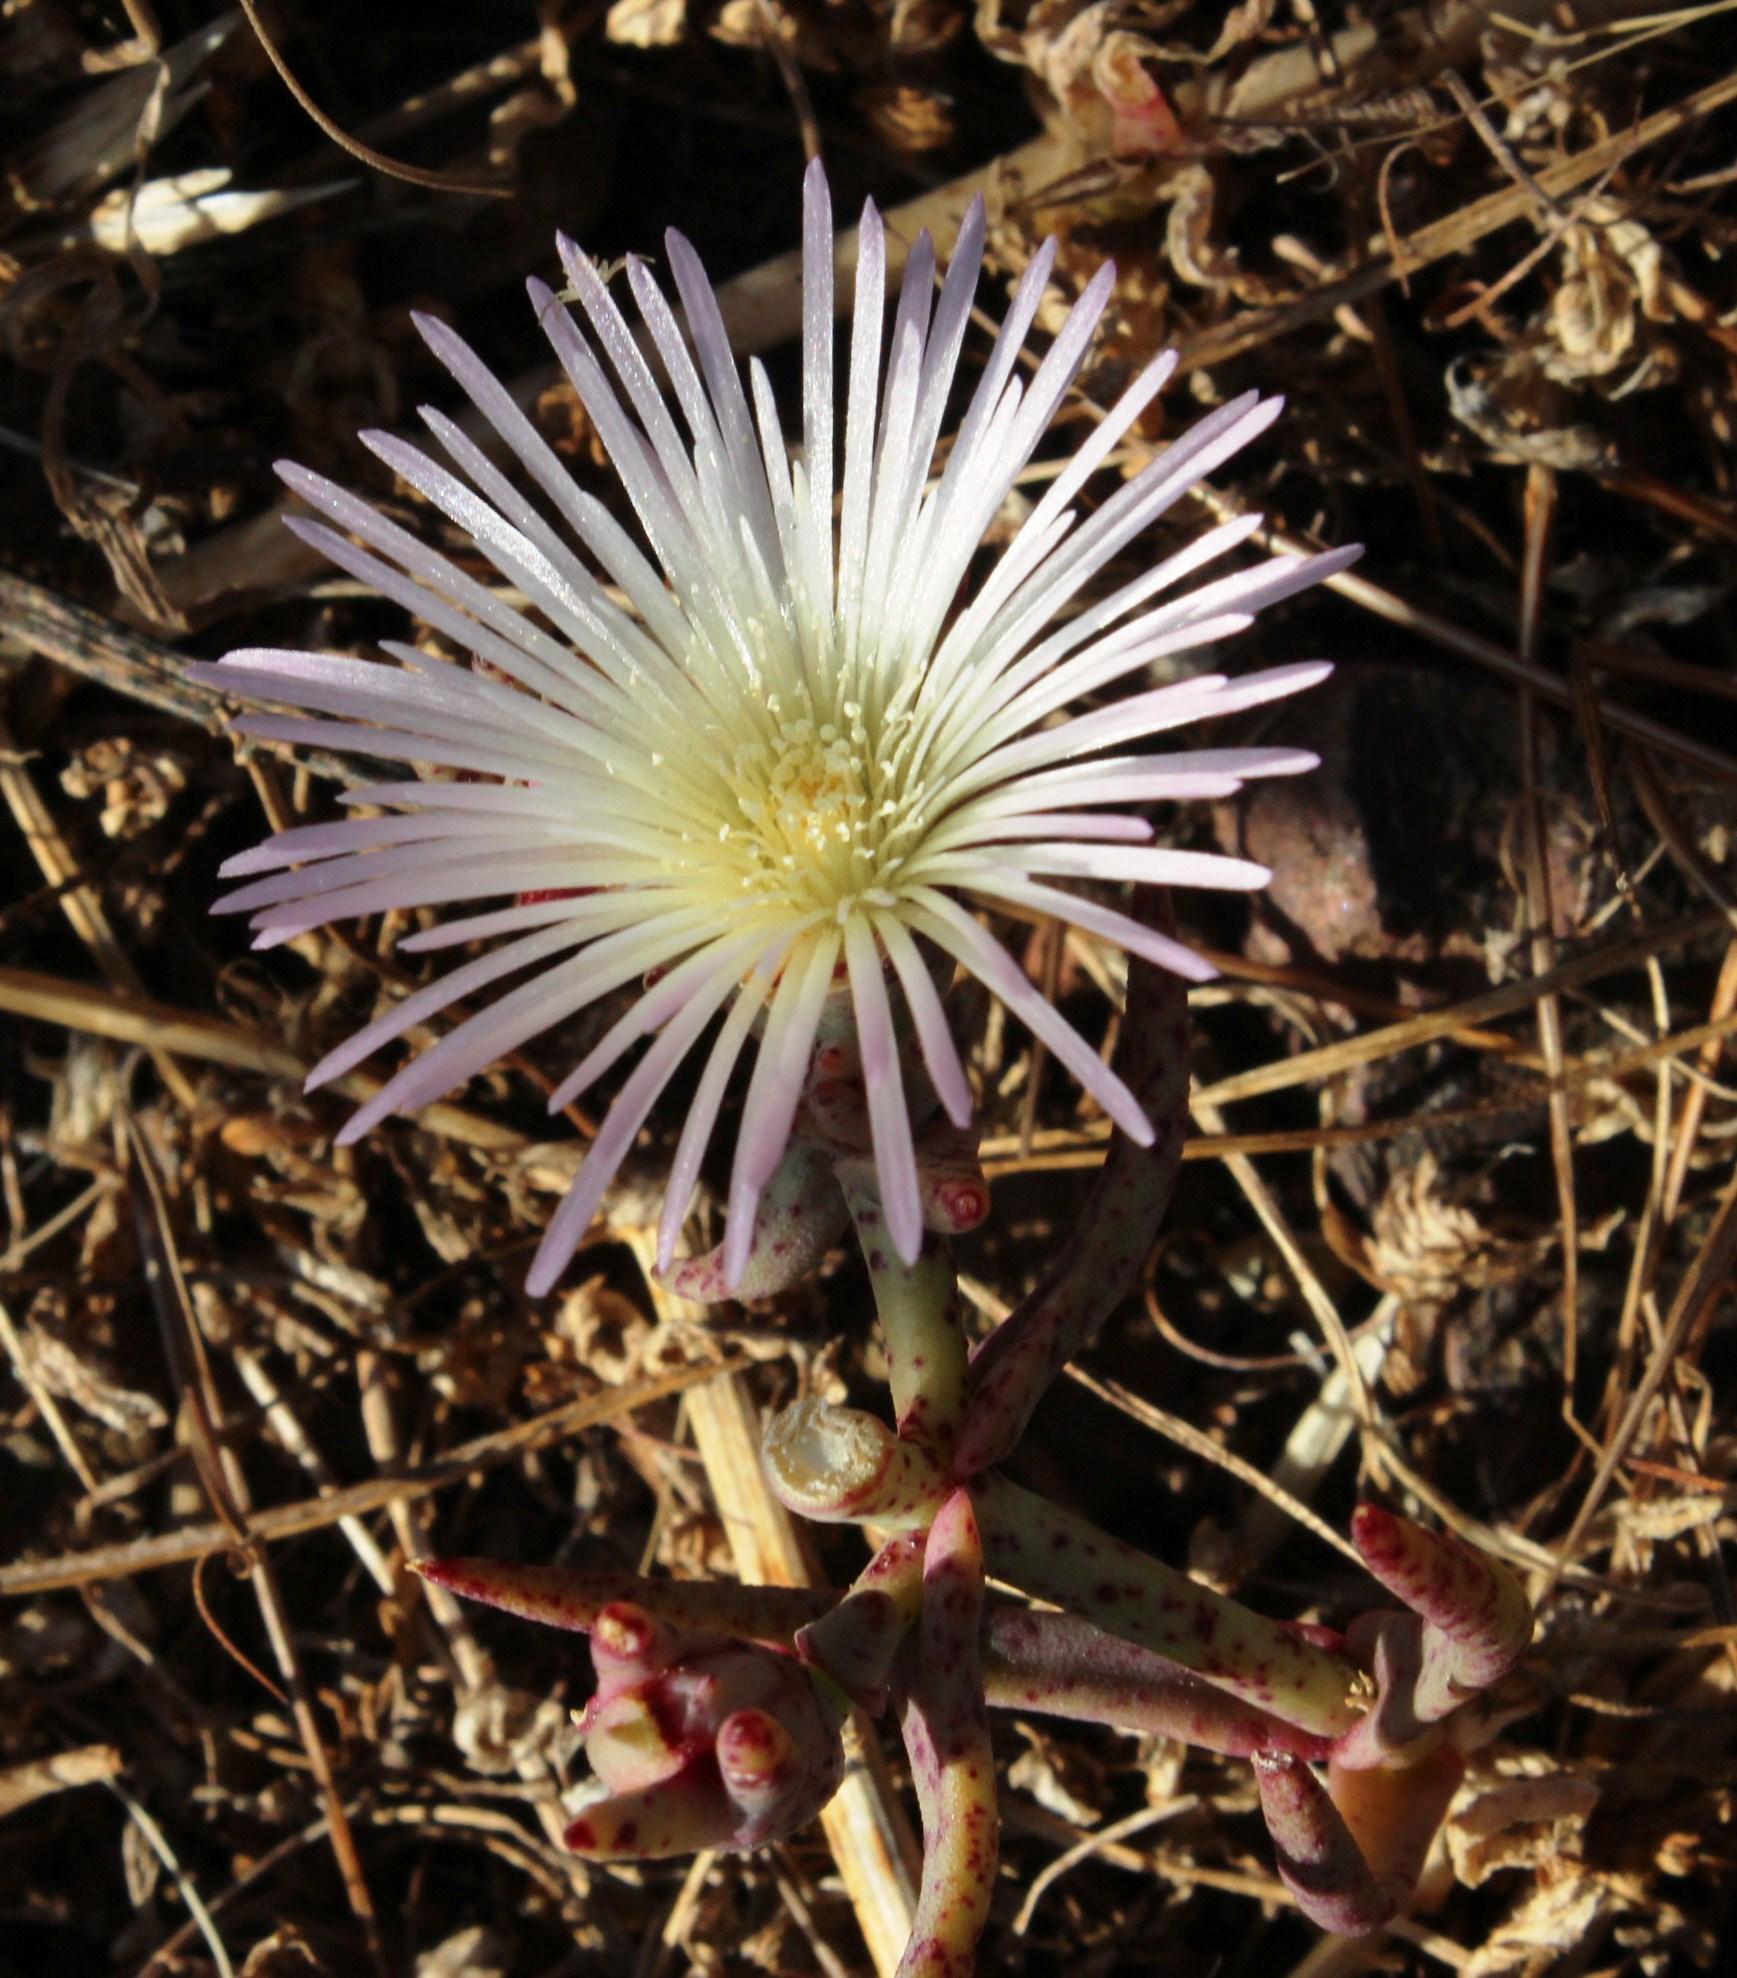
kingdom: Plantae
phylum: Tracheophyta
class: Magnoliopsida
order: Caryophyllales
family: Aizoaceae
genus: Mesembryanthemum
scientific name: Mesembryanthemum pallens
